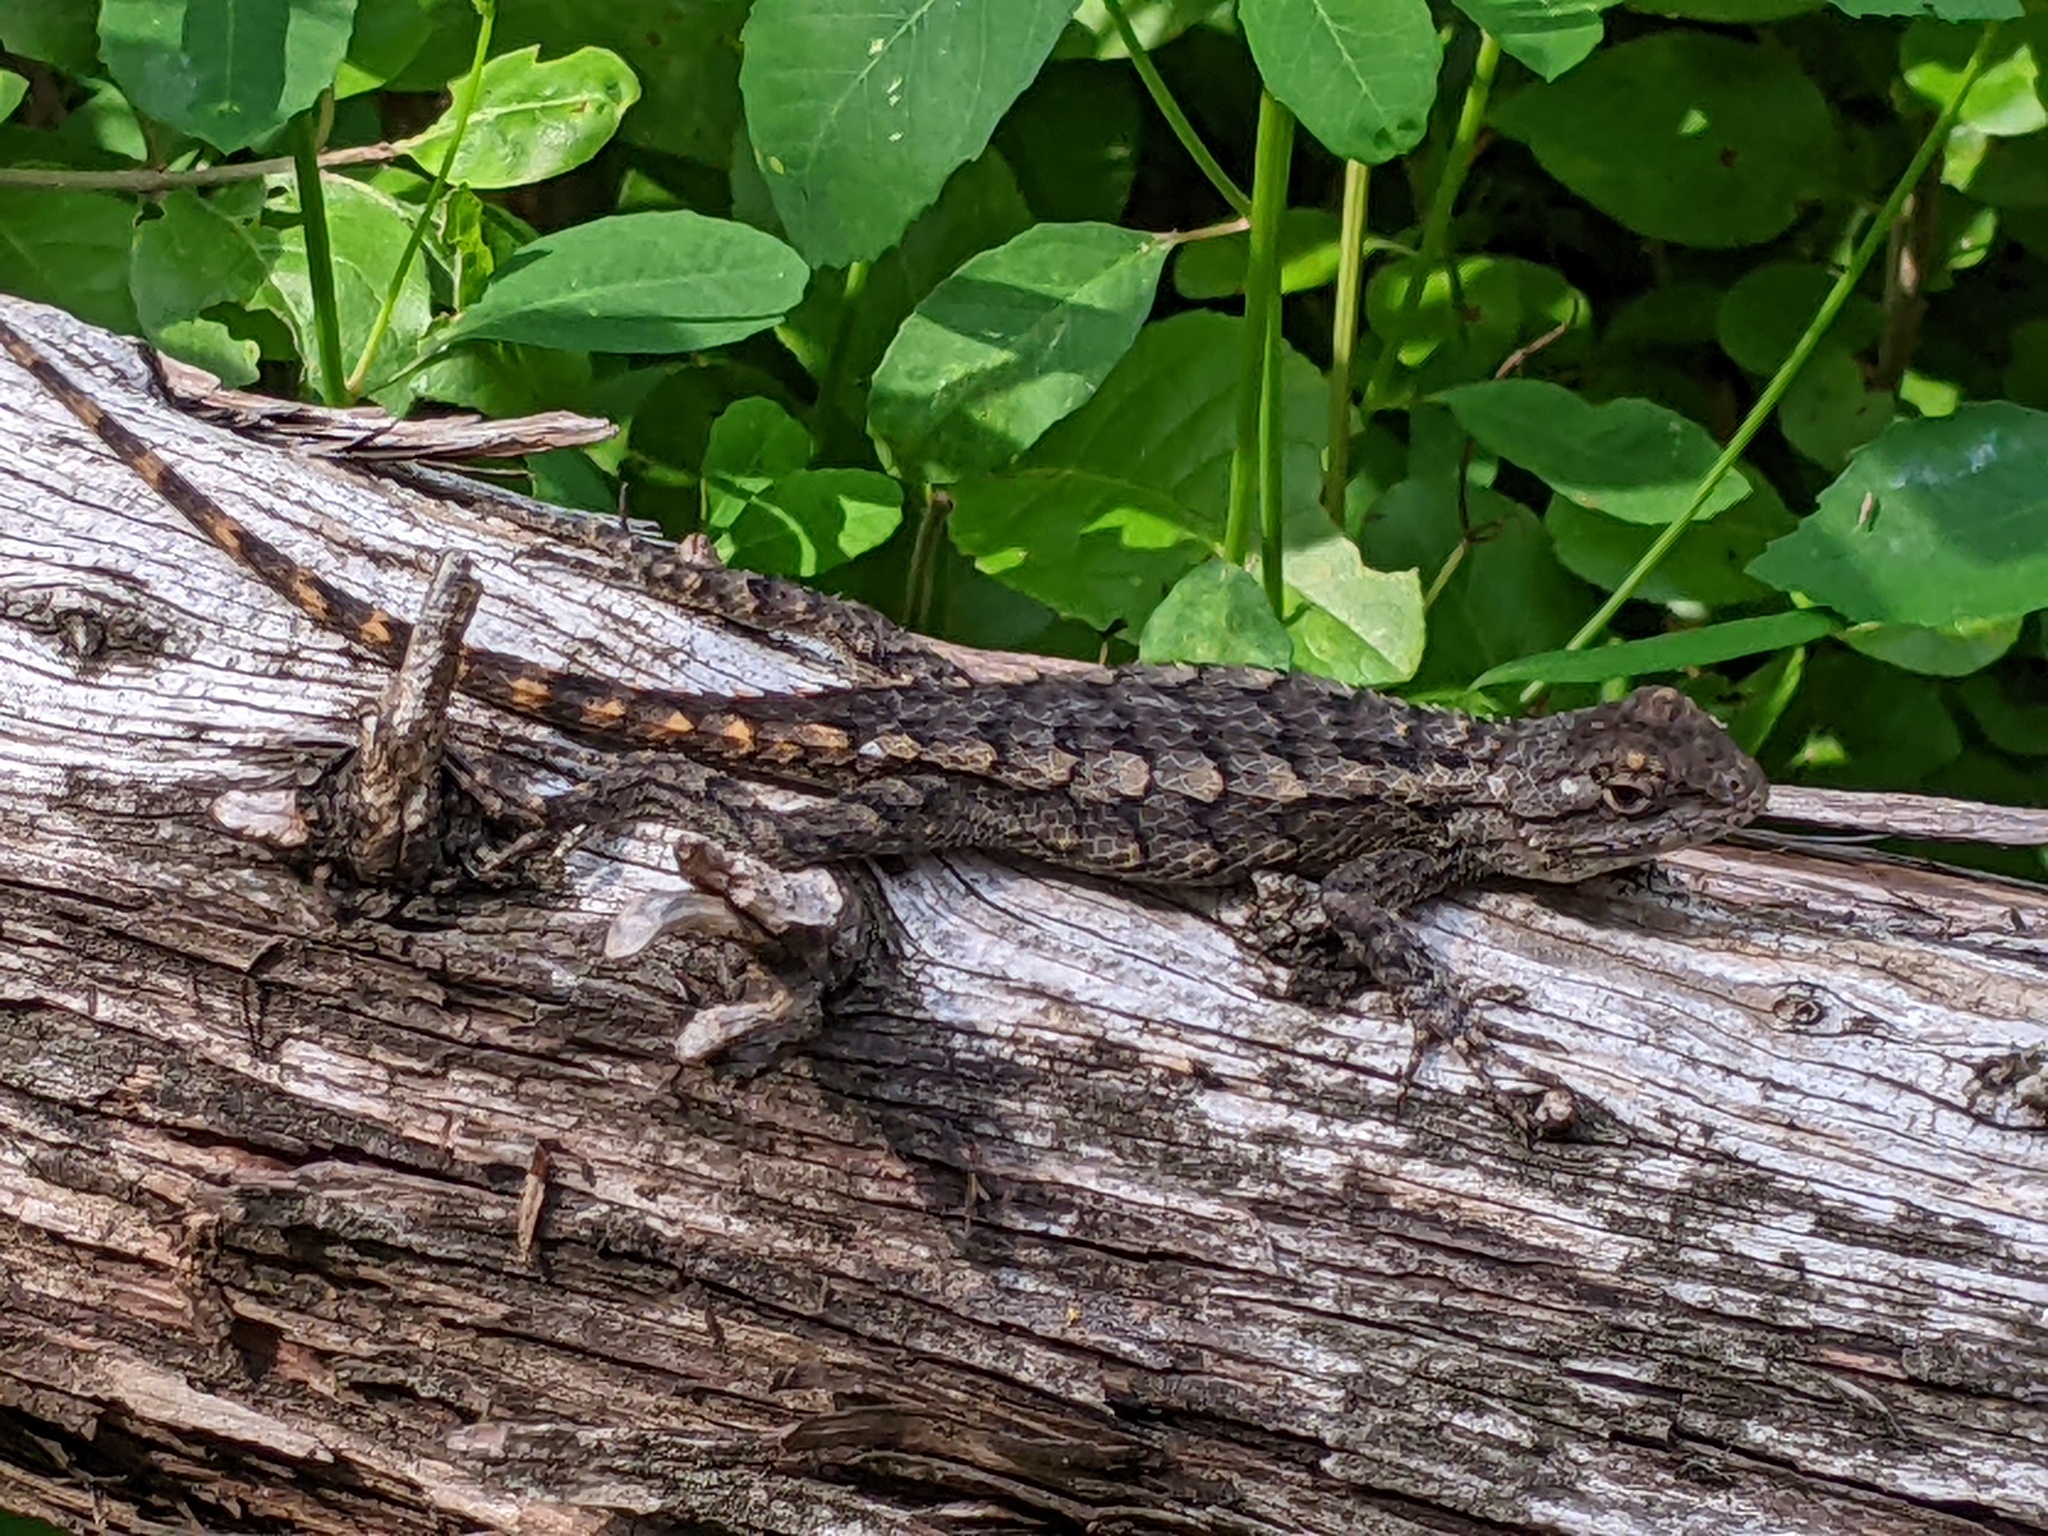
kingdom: Animalia
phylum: Chordata
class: Squamata
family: Phrynosomatidae
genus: Sceloporus
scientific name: Sceloporus olivaceus
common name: Texas spiny lizard
